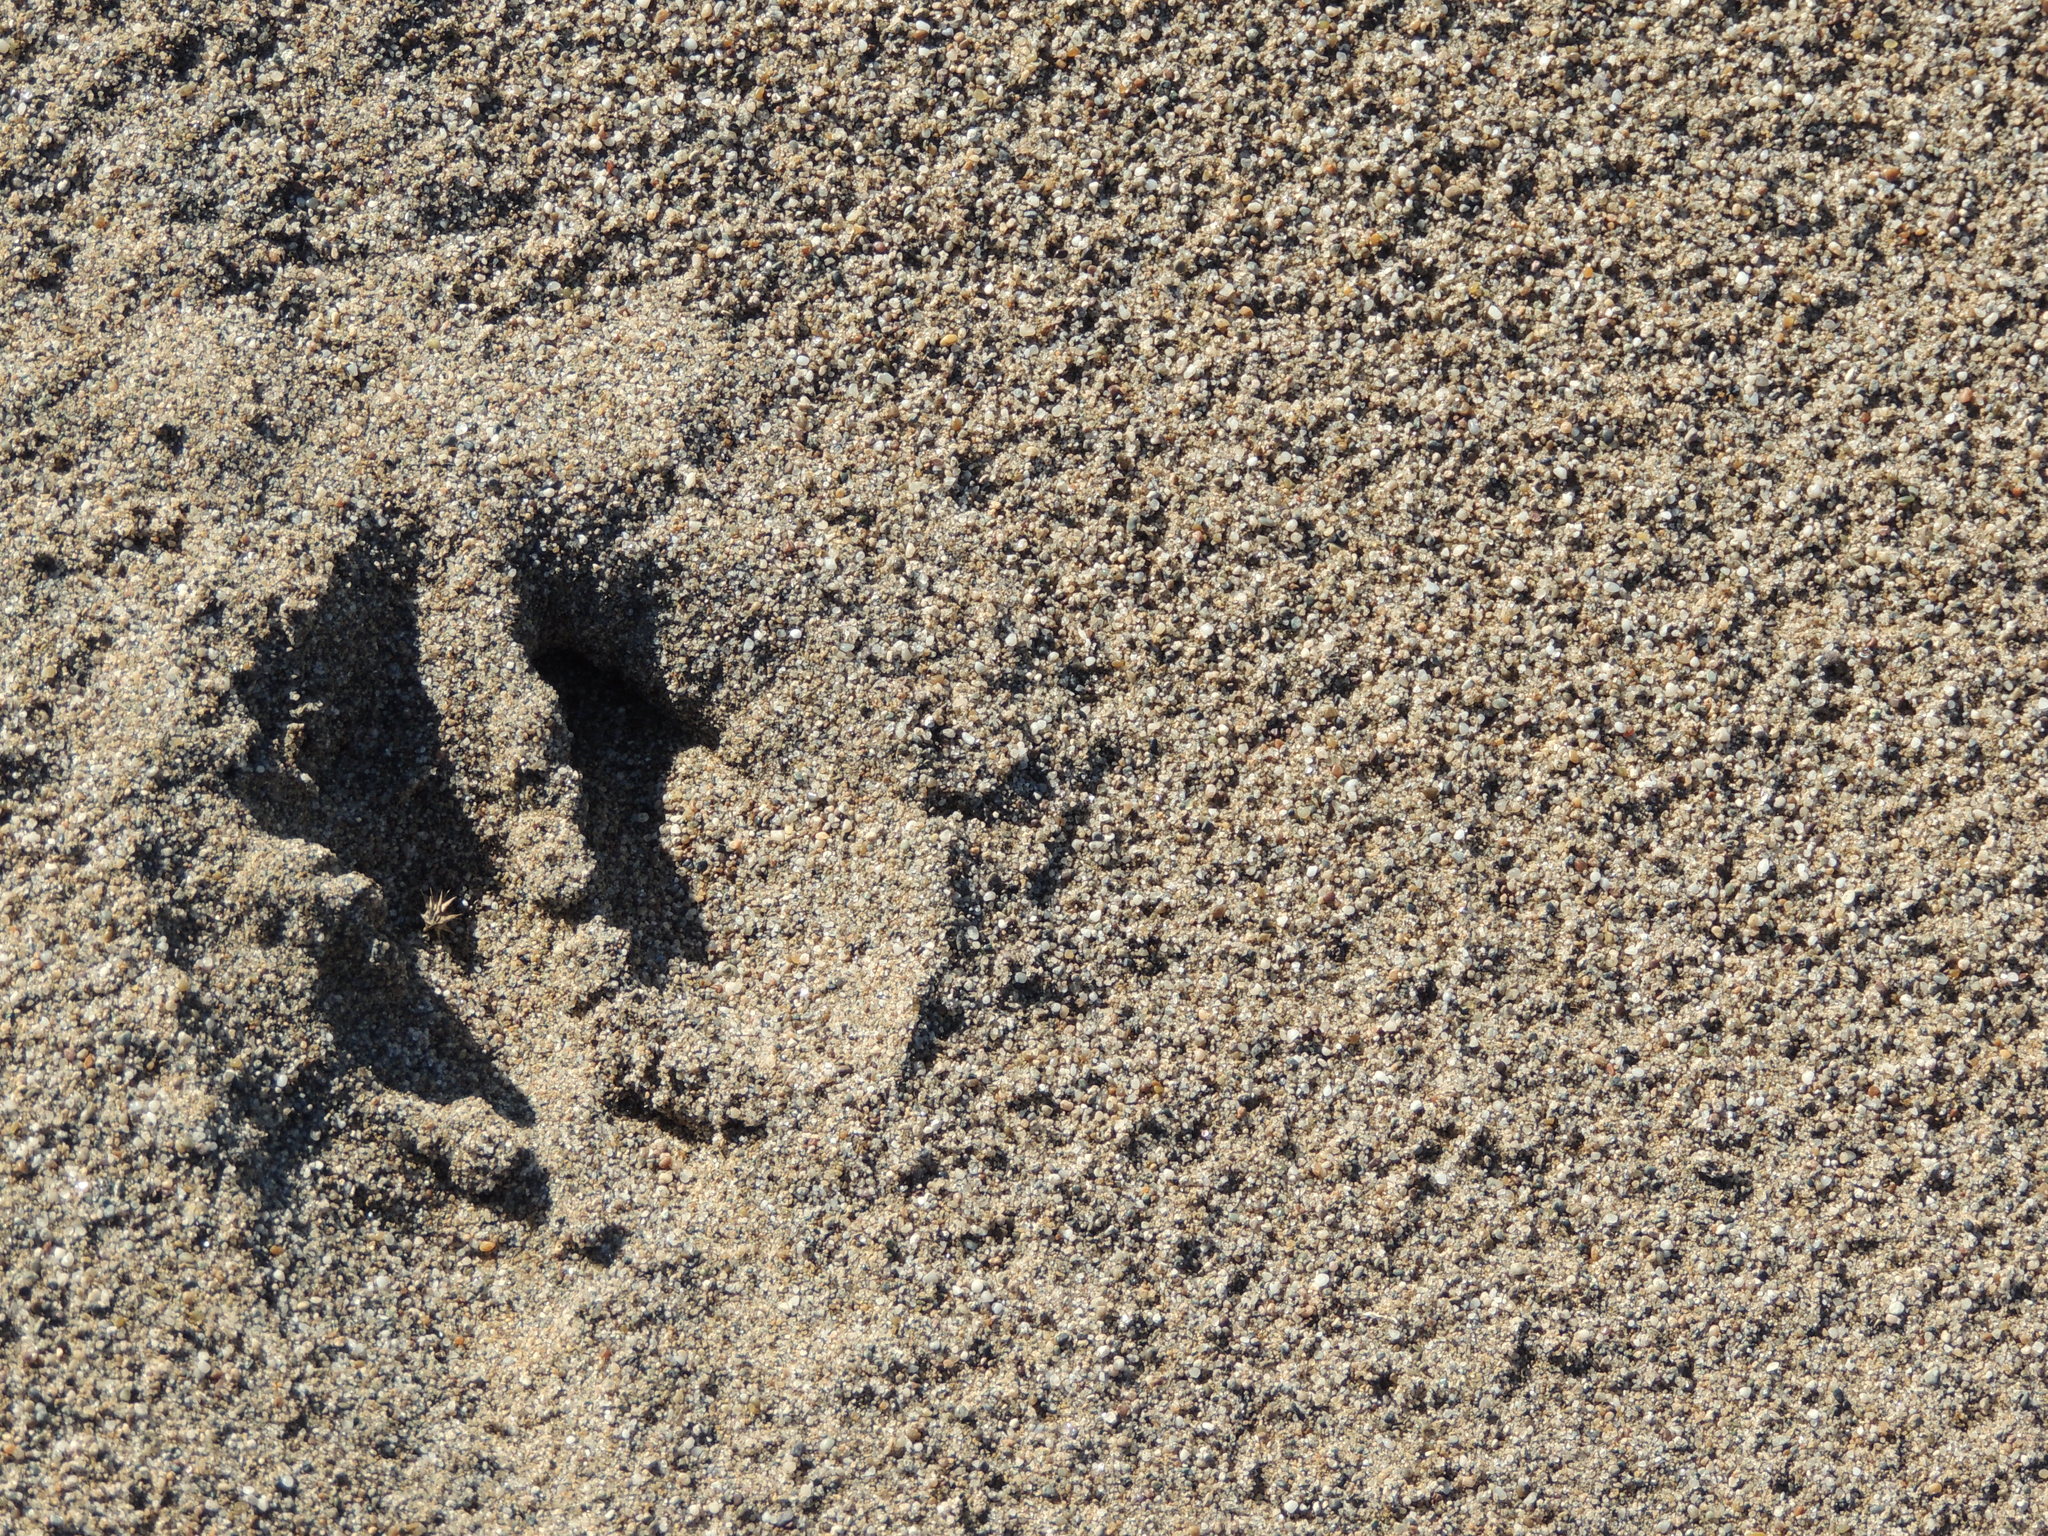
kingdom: Animalia
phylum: Chordata
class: Mammalia
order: Artiodactyla
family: Cervidae
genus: Odocoileus
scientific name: Odocoileus hemionus
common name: Mule deer
